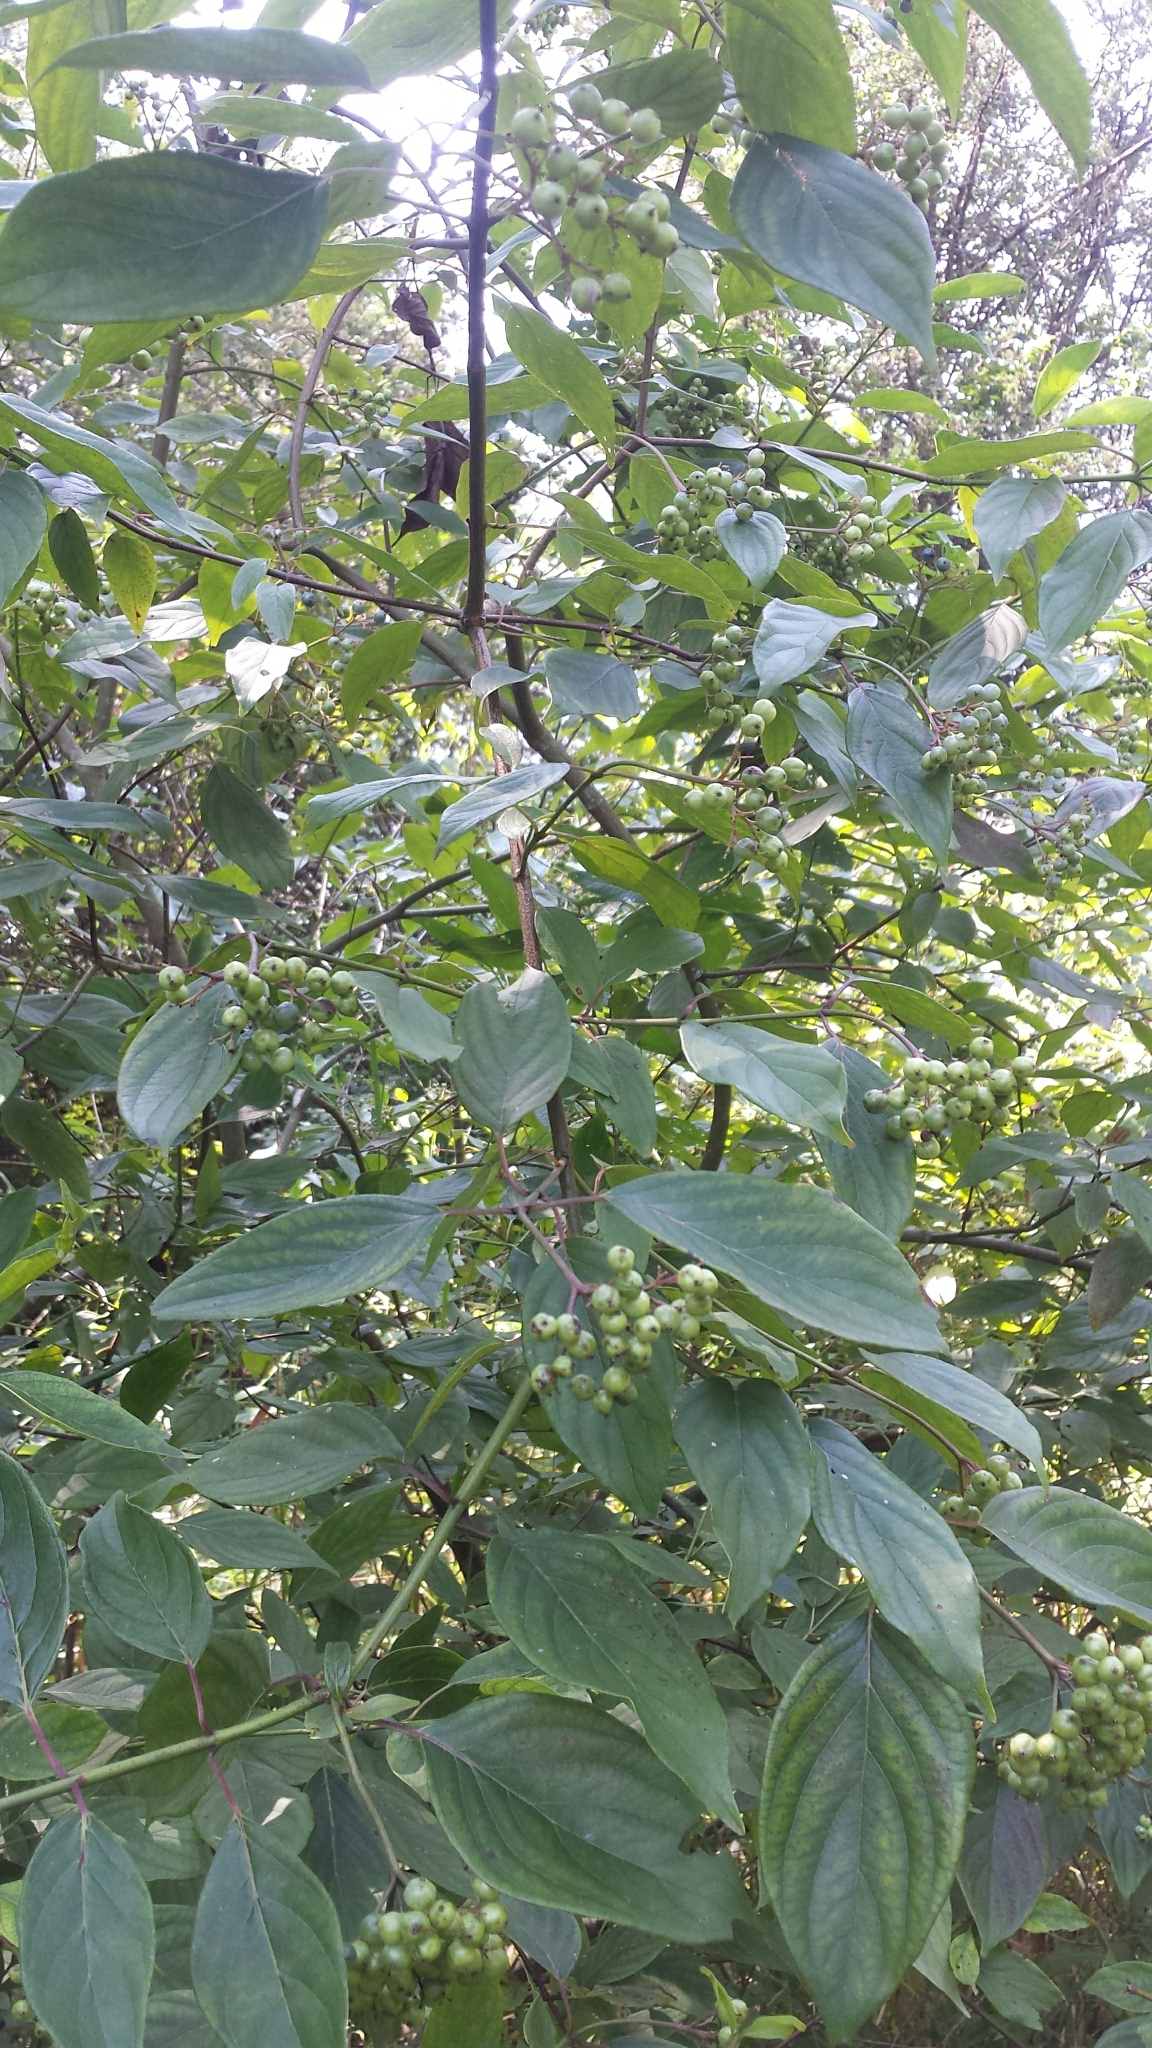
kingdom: Plantae
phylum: Tracheophyta
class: Magnoliopsida
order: Cornales
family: Cornaceae
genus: Cornus
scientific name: Cornus racemosa
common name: Panicled dogwood
